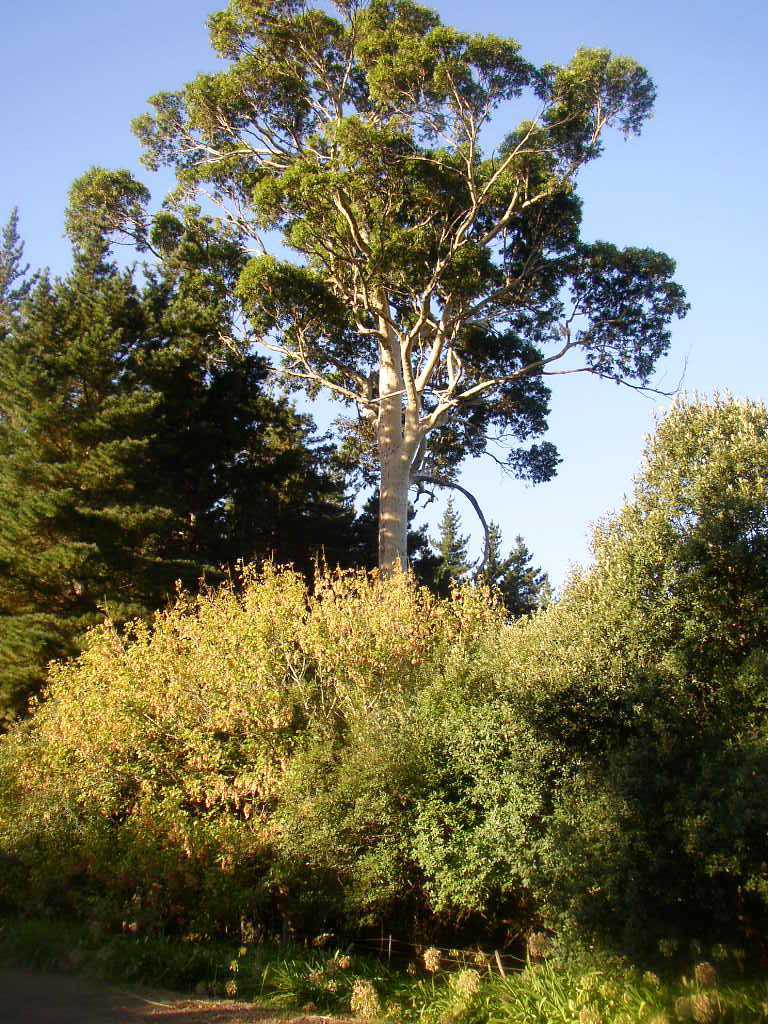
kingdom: Plantae
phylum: Tracheophyta
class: Magnoliopsida
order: Myrtales
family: Myrtaceae
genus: Eucalyptus
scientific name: Eucalyptus diversicolor
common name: Karri
